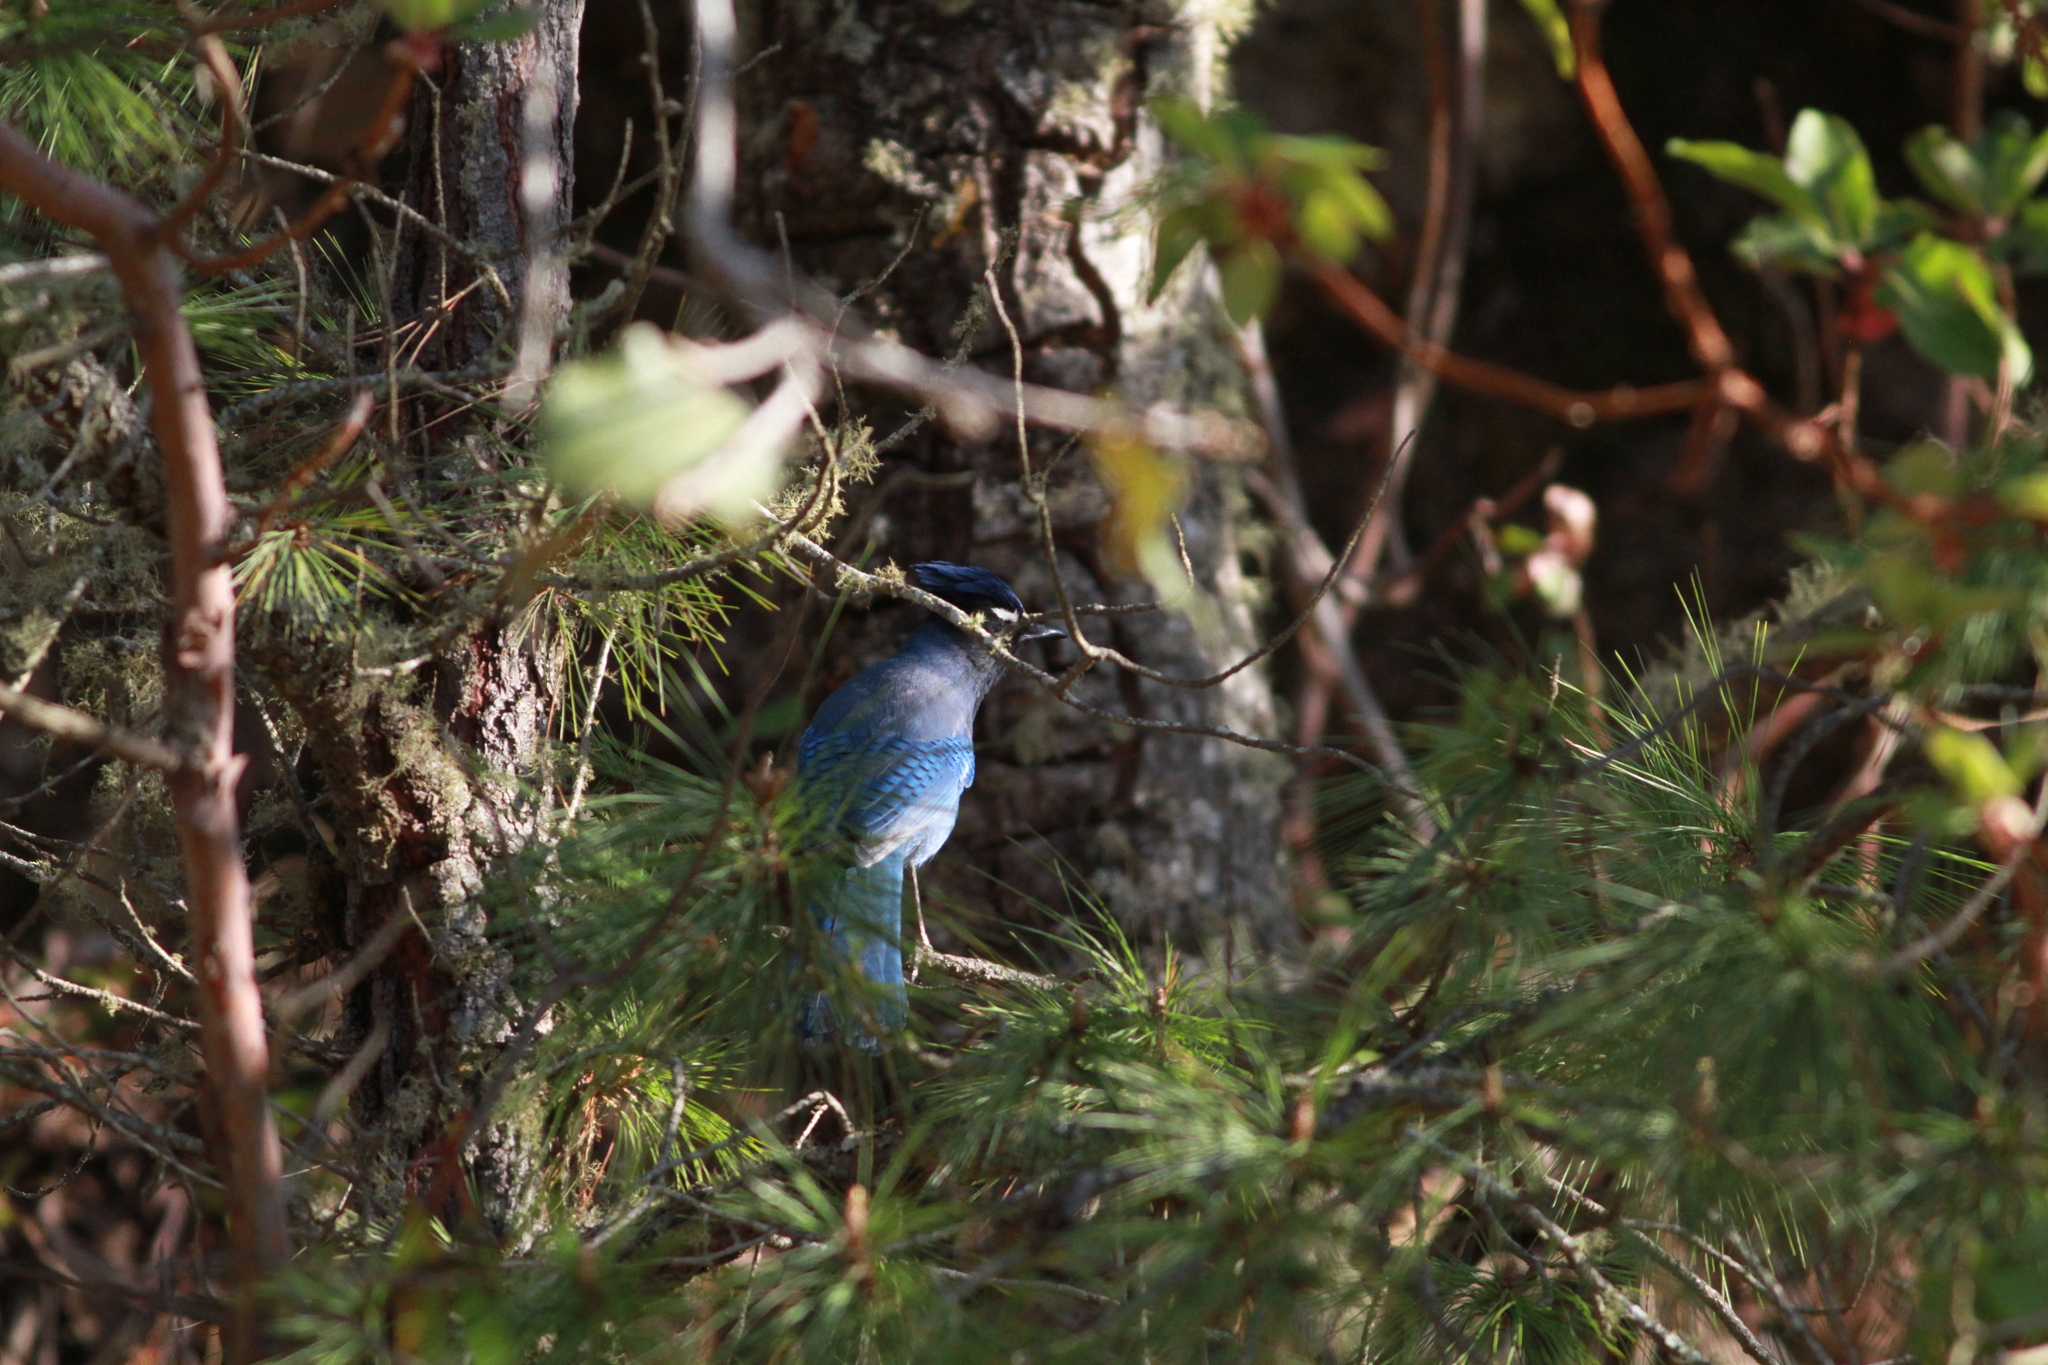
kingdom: Animalia
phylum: Chordata
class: Aves
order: Passeriformes
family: Corvidae
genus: Cyanocitta
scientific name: Cyanocitta stelleri
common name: Steller's jay
